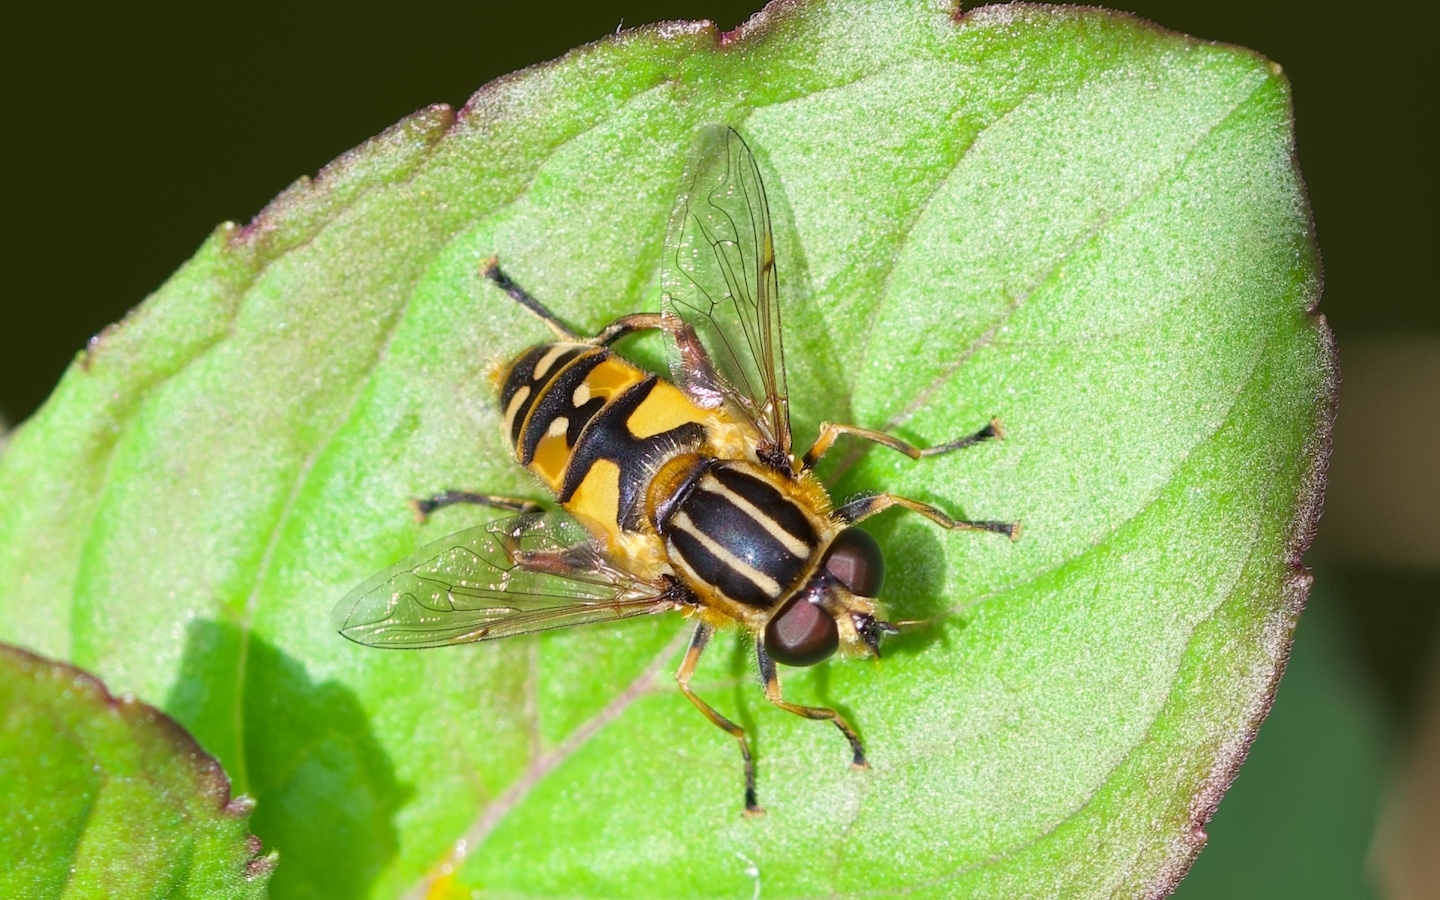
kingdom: Animalia
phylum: Arthropoda
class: Insecta
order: Diptera
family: Syrphidae
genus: Helophilus
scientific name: Helophilus pendulus
